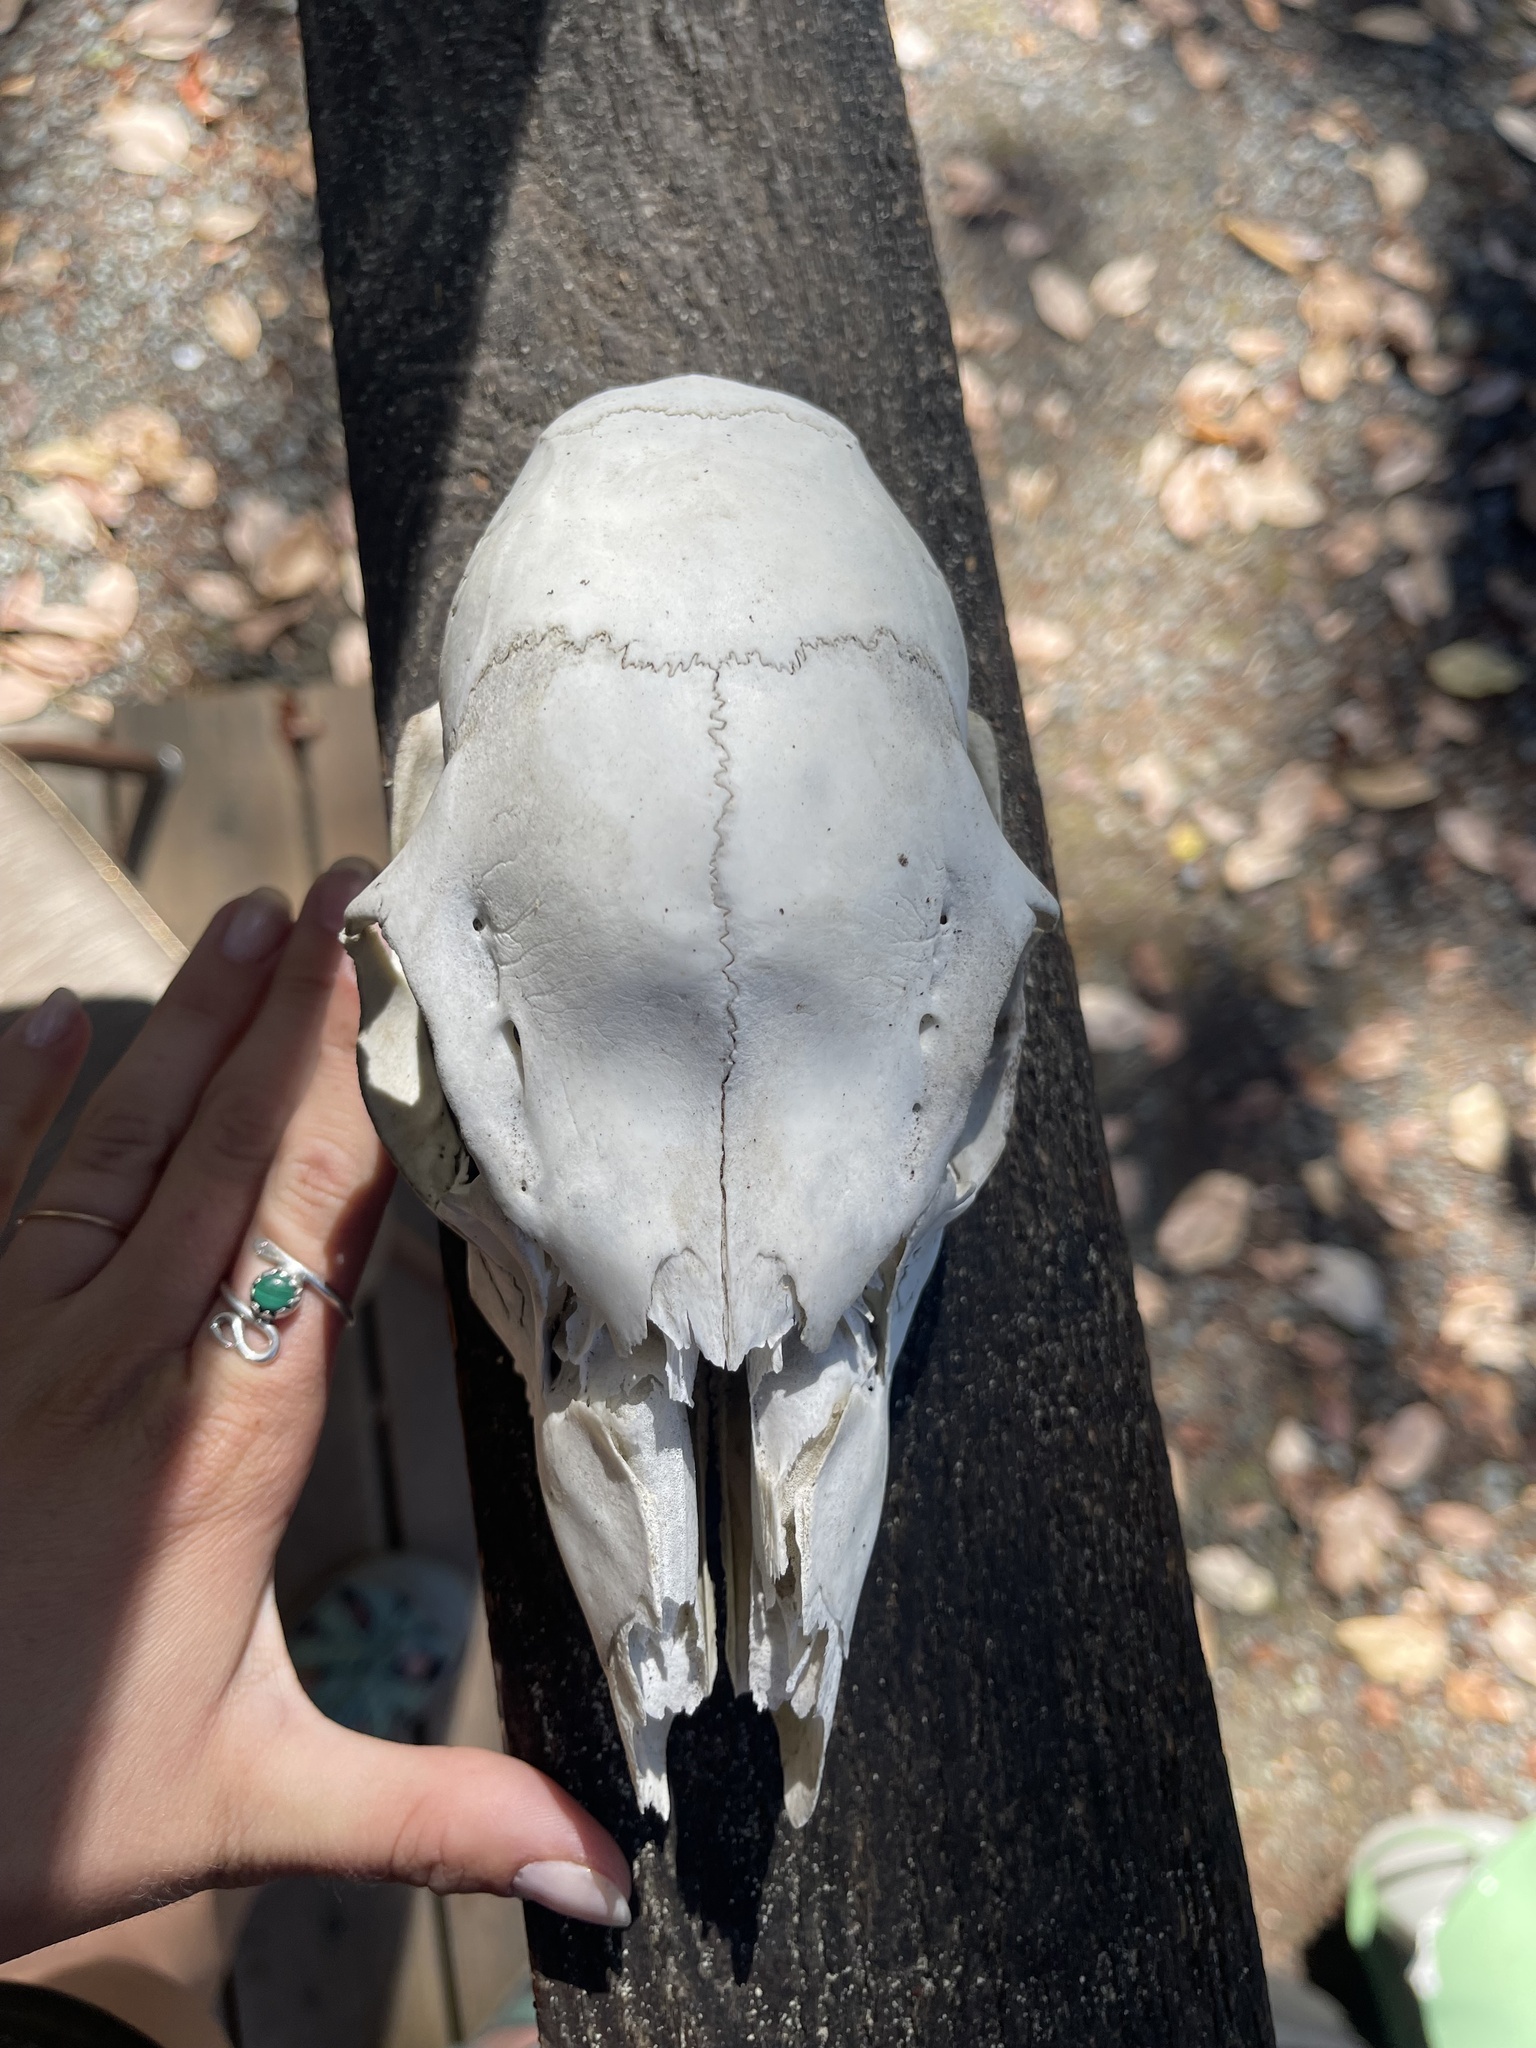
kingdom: Animalia
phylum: Chordata
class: Mammalia
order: Artiodactyla
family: Cervidae
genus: Odocoileus
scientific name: Odocoileus hemionus
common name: Mule deer
